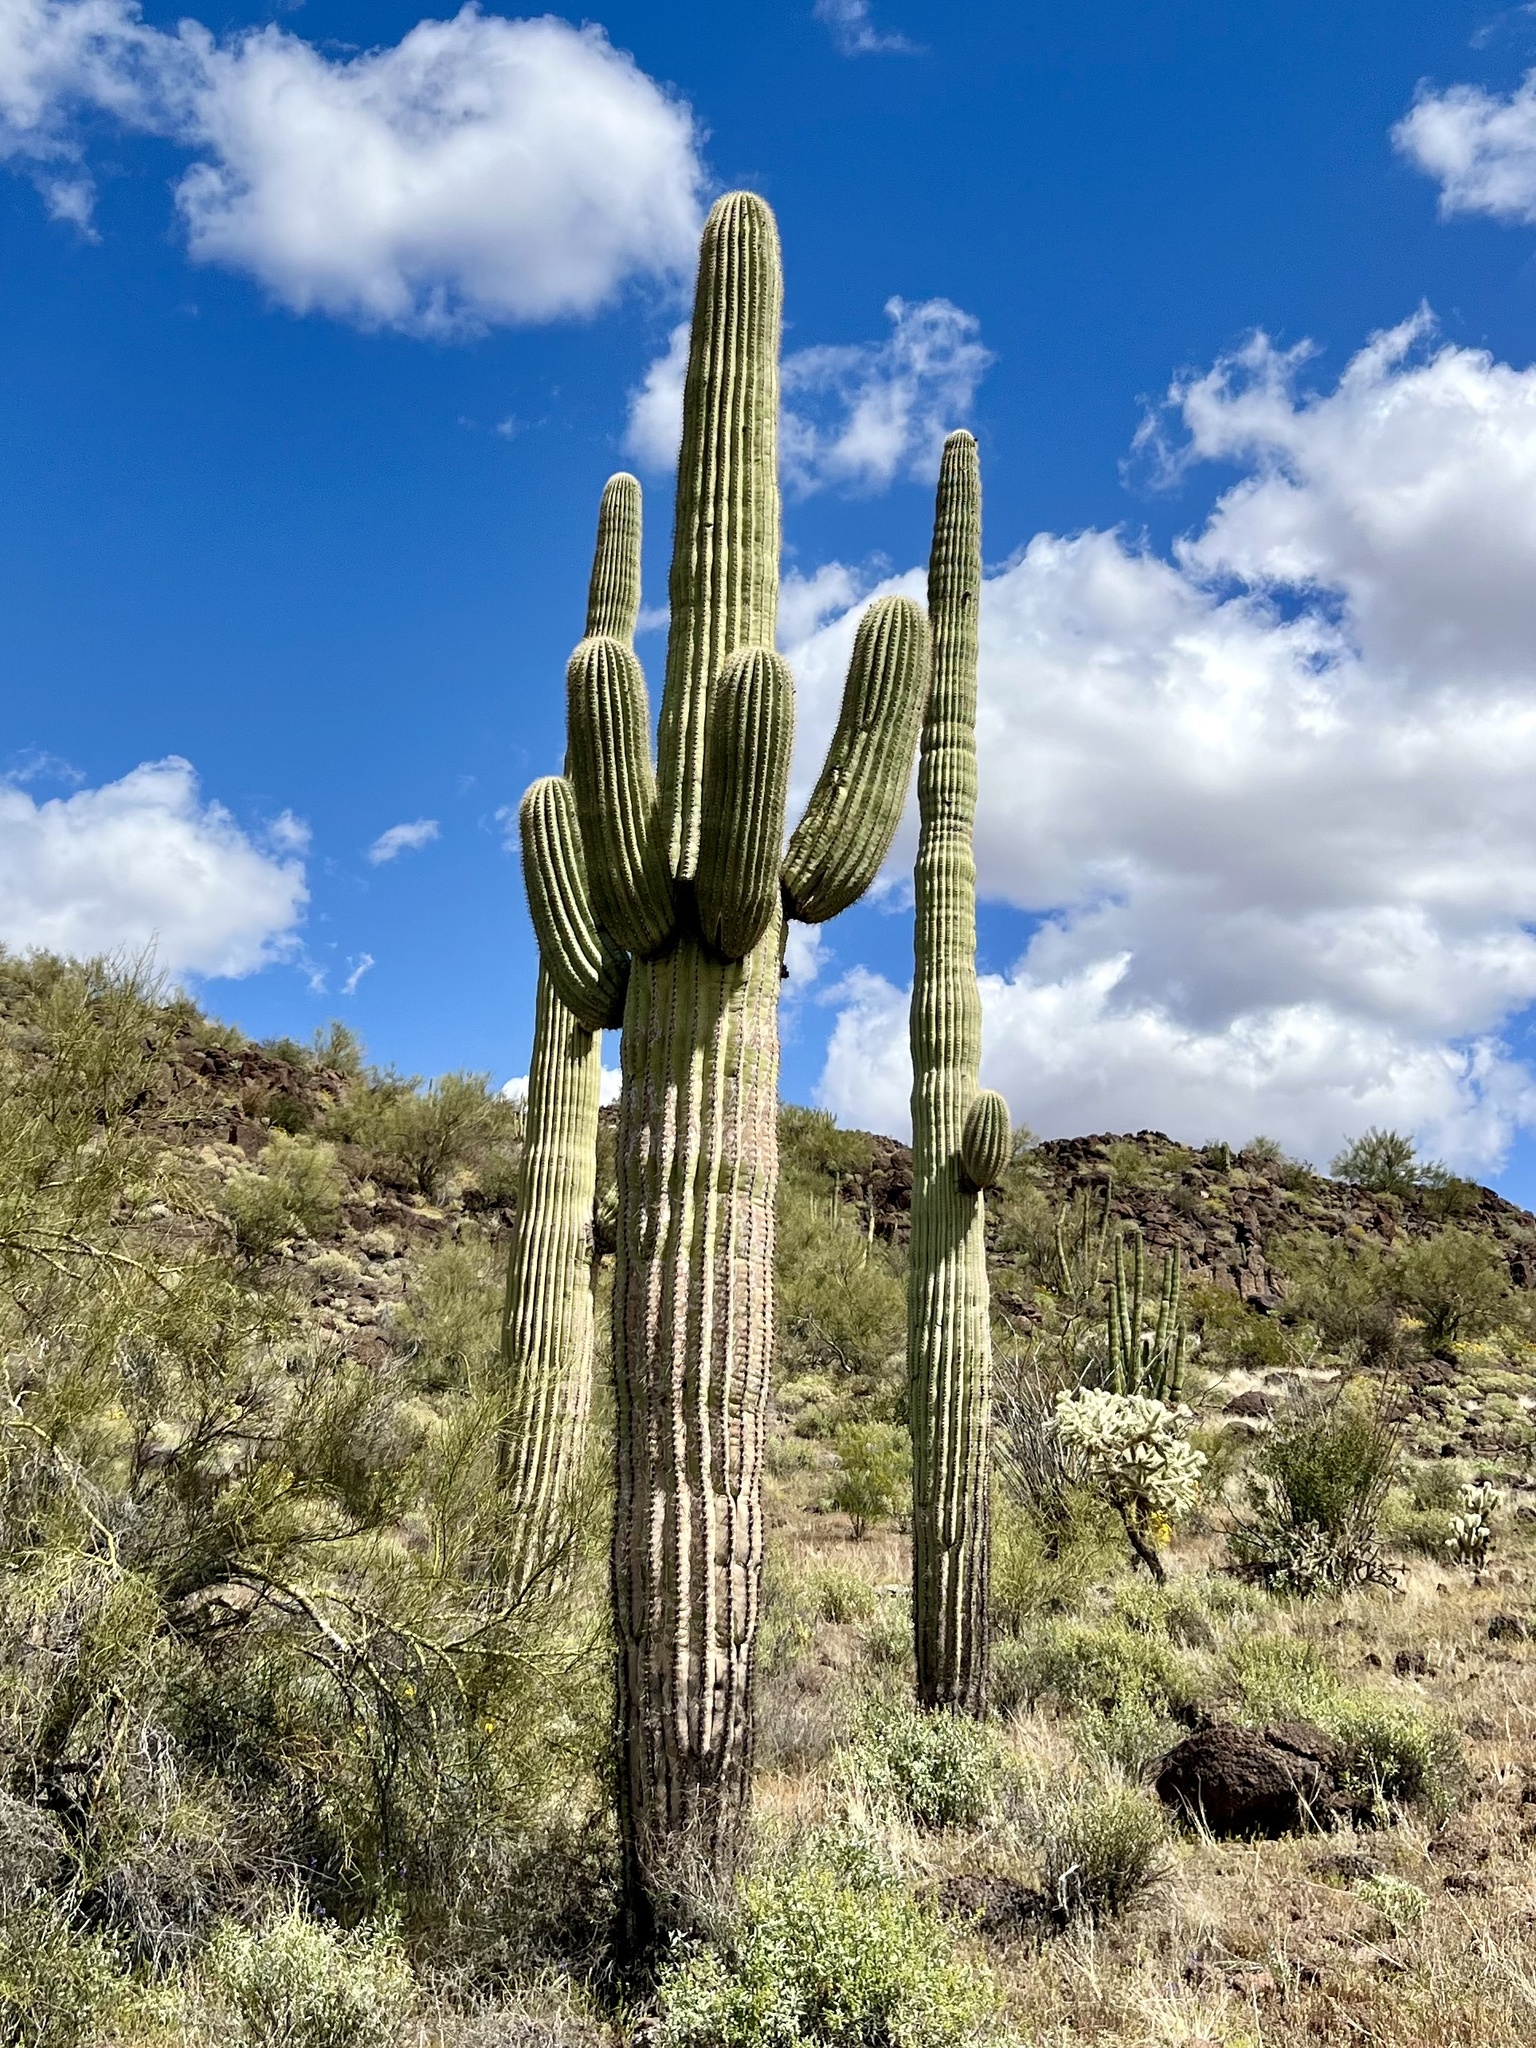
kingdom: Plantae
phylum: Tracheophyta
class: Magnoliopsida
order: Caryophyllales
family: Cactaceae
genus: Carnegiea
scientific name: Carnegiea gigantea
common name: Saguaro
